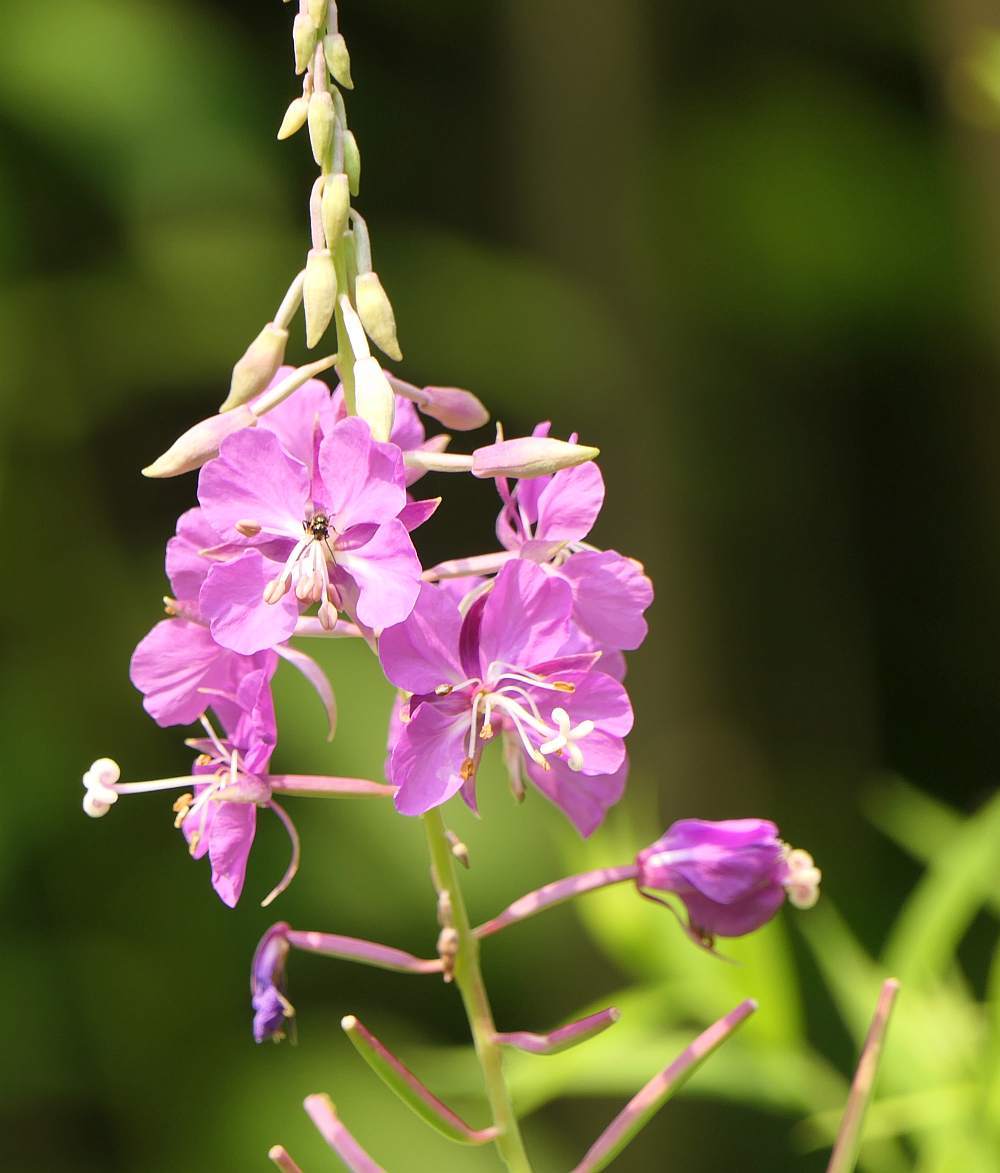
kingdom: Plantae
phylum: Tracheophyta
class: Magnoliopsida
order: Myrtales
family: Onagraceae
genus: Chamaenerion
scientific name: Chamaenerion angustifolium
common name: Fireweed
